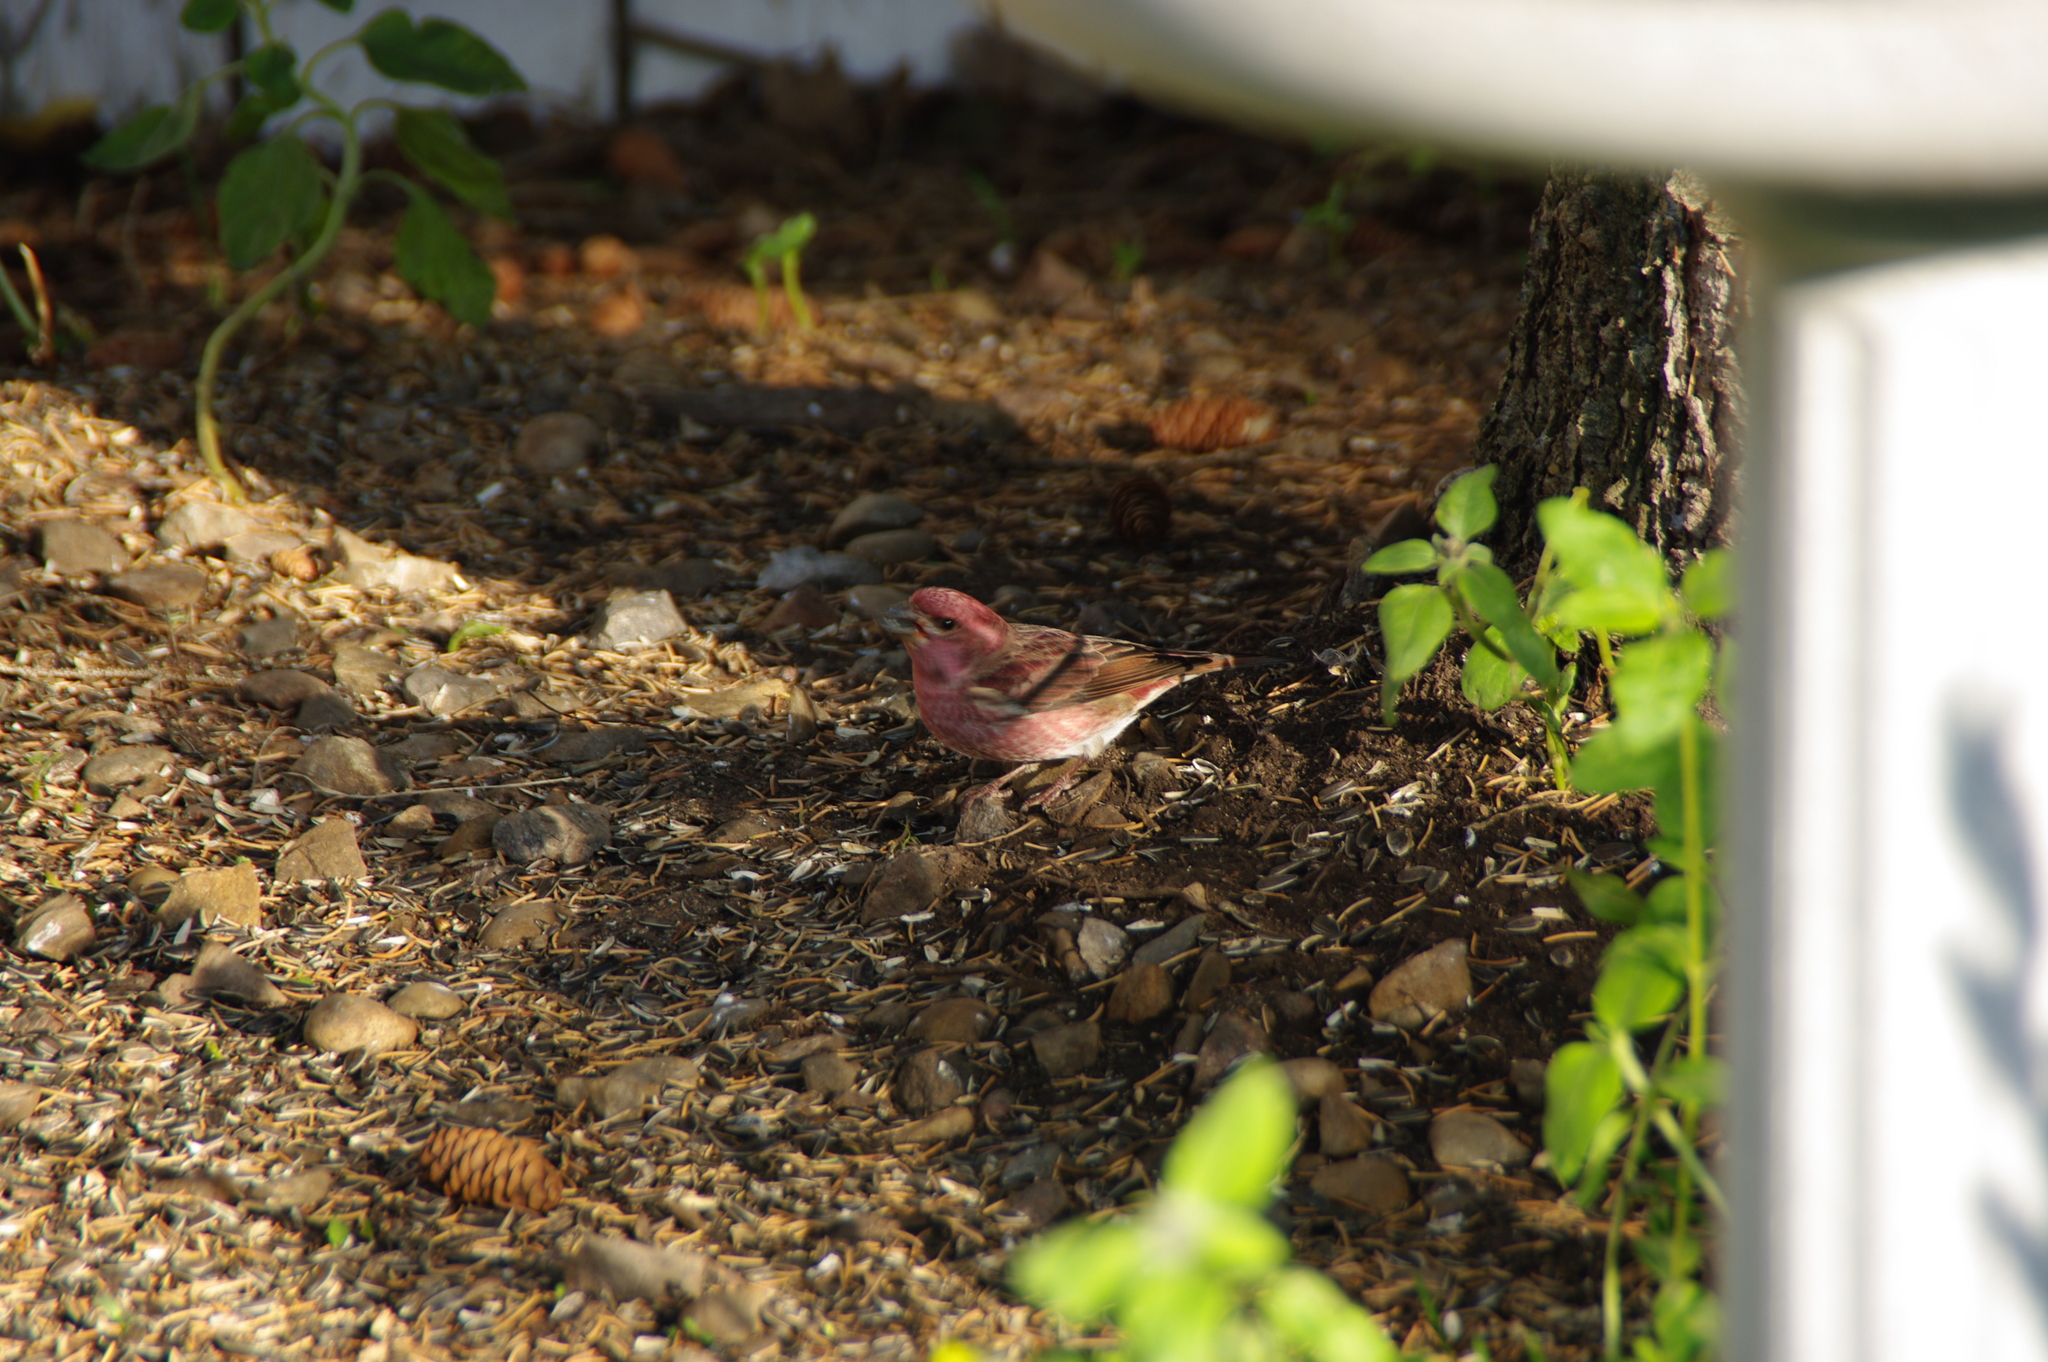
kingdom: Animalia
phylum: Chordata
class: Aves
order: Passeriformes
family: Fringillidae
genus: Haemorhous
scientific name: Haemorhous purpureus
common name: Purple finch
